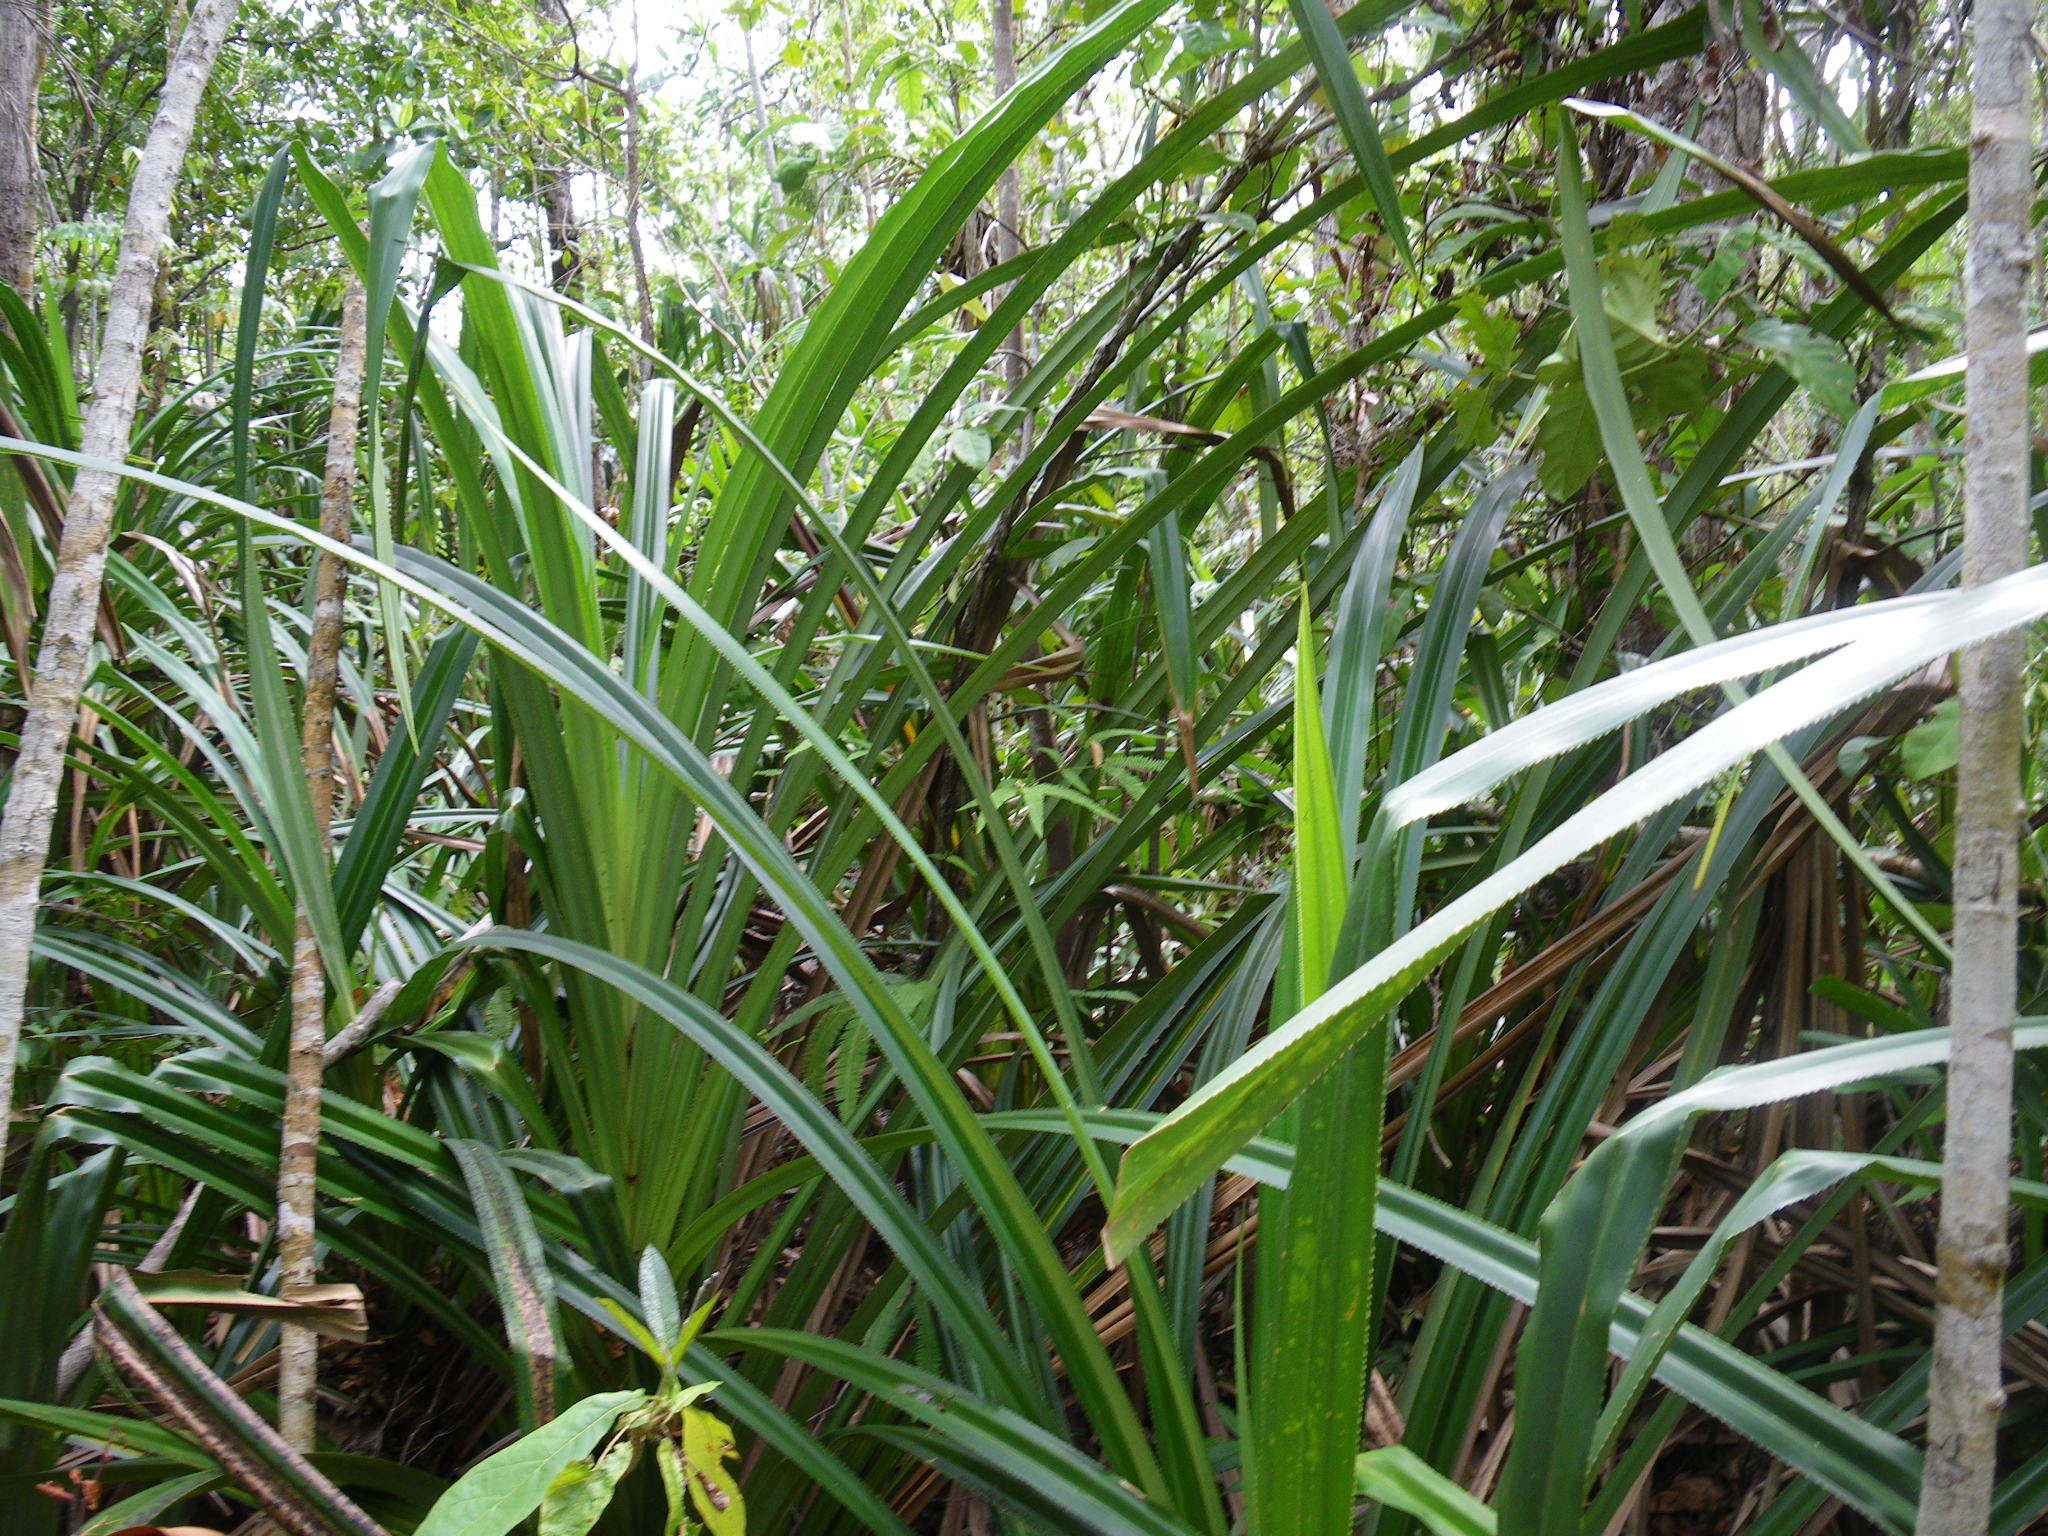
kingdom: Plantae
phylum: Tracheophyta
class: Liliopsida
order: Pandanales
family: Pandanaceae
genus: Benstonea
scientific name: Benstonea lauterbachii
